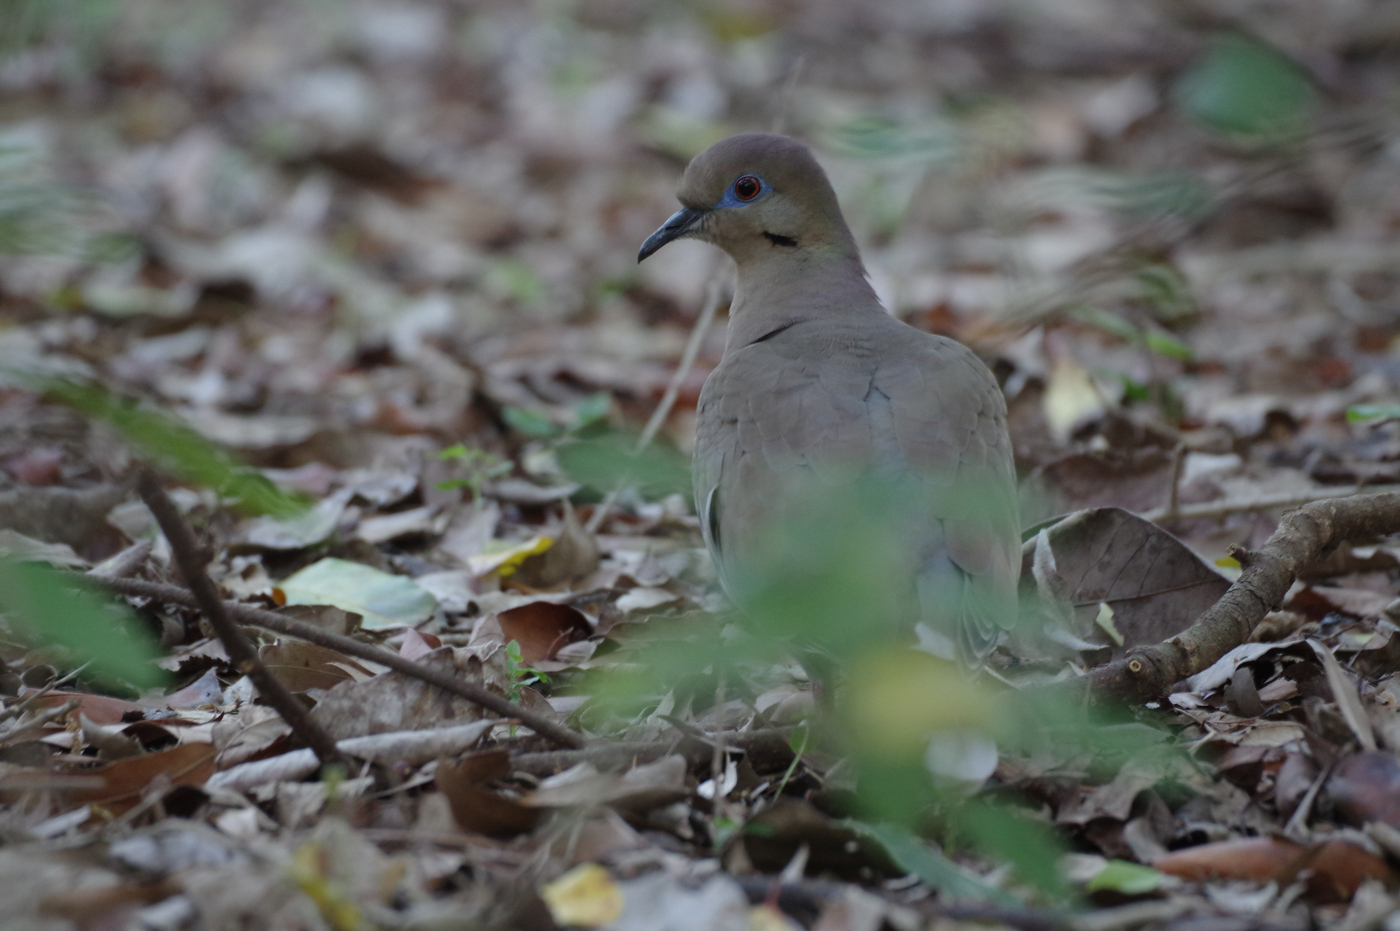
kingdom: Animalia
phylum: Chordata
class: Aves
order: Columbiformes
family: Columbidae
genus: Zenaida
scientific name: Zenaida asiatica
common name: White-winged dove
